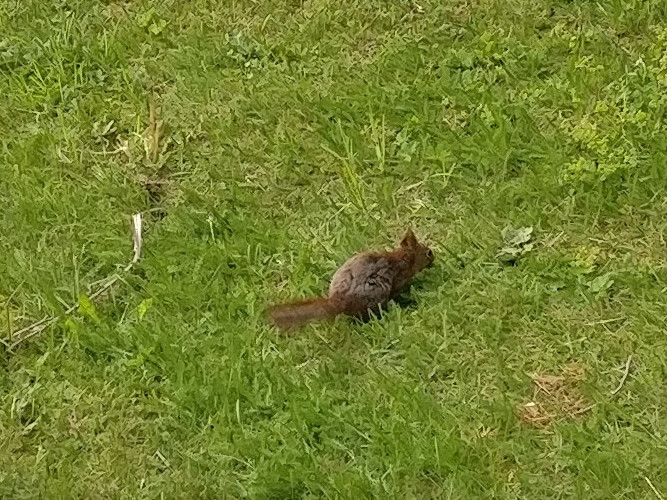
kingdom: Animalia
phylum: Chordata
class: Mammalia
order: Rodentia
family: Sciuridae
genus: Sciurus
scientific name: Sciurus vulgaris
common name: Eurasian red squirrel
